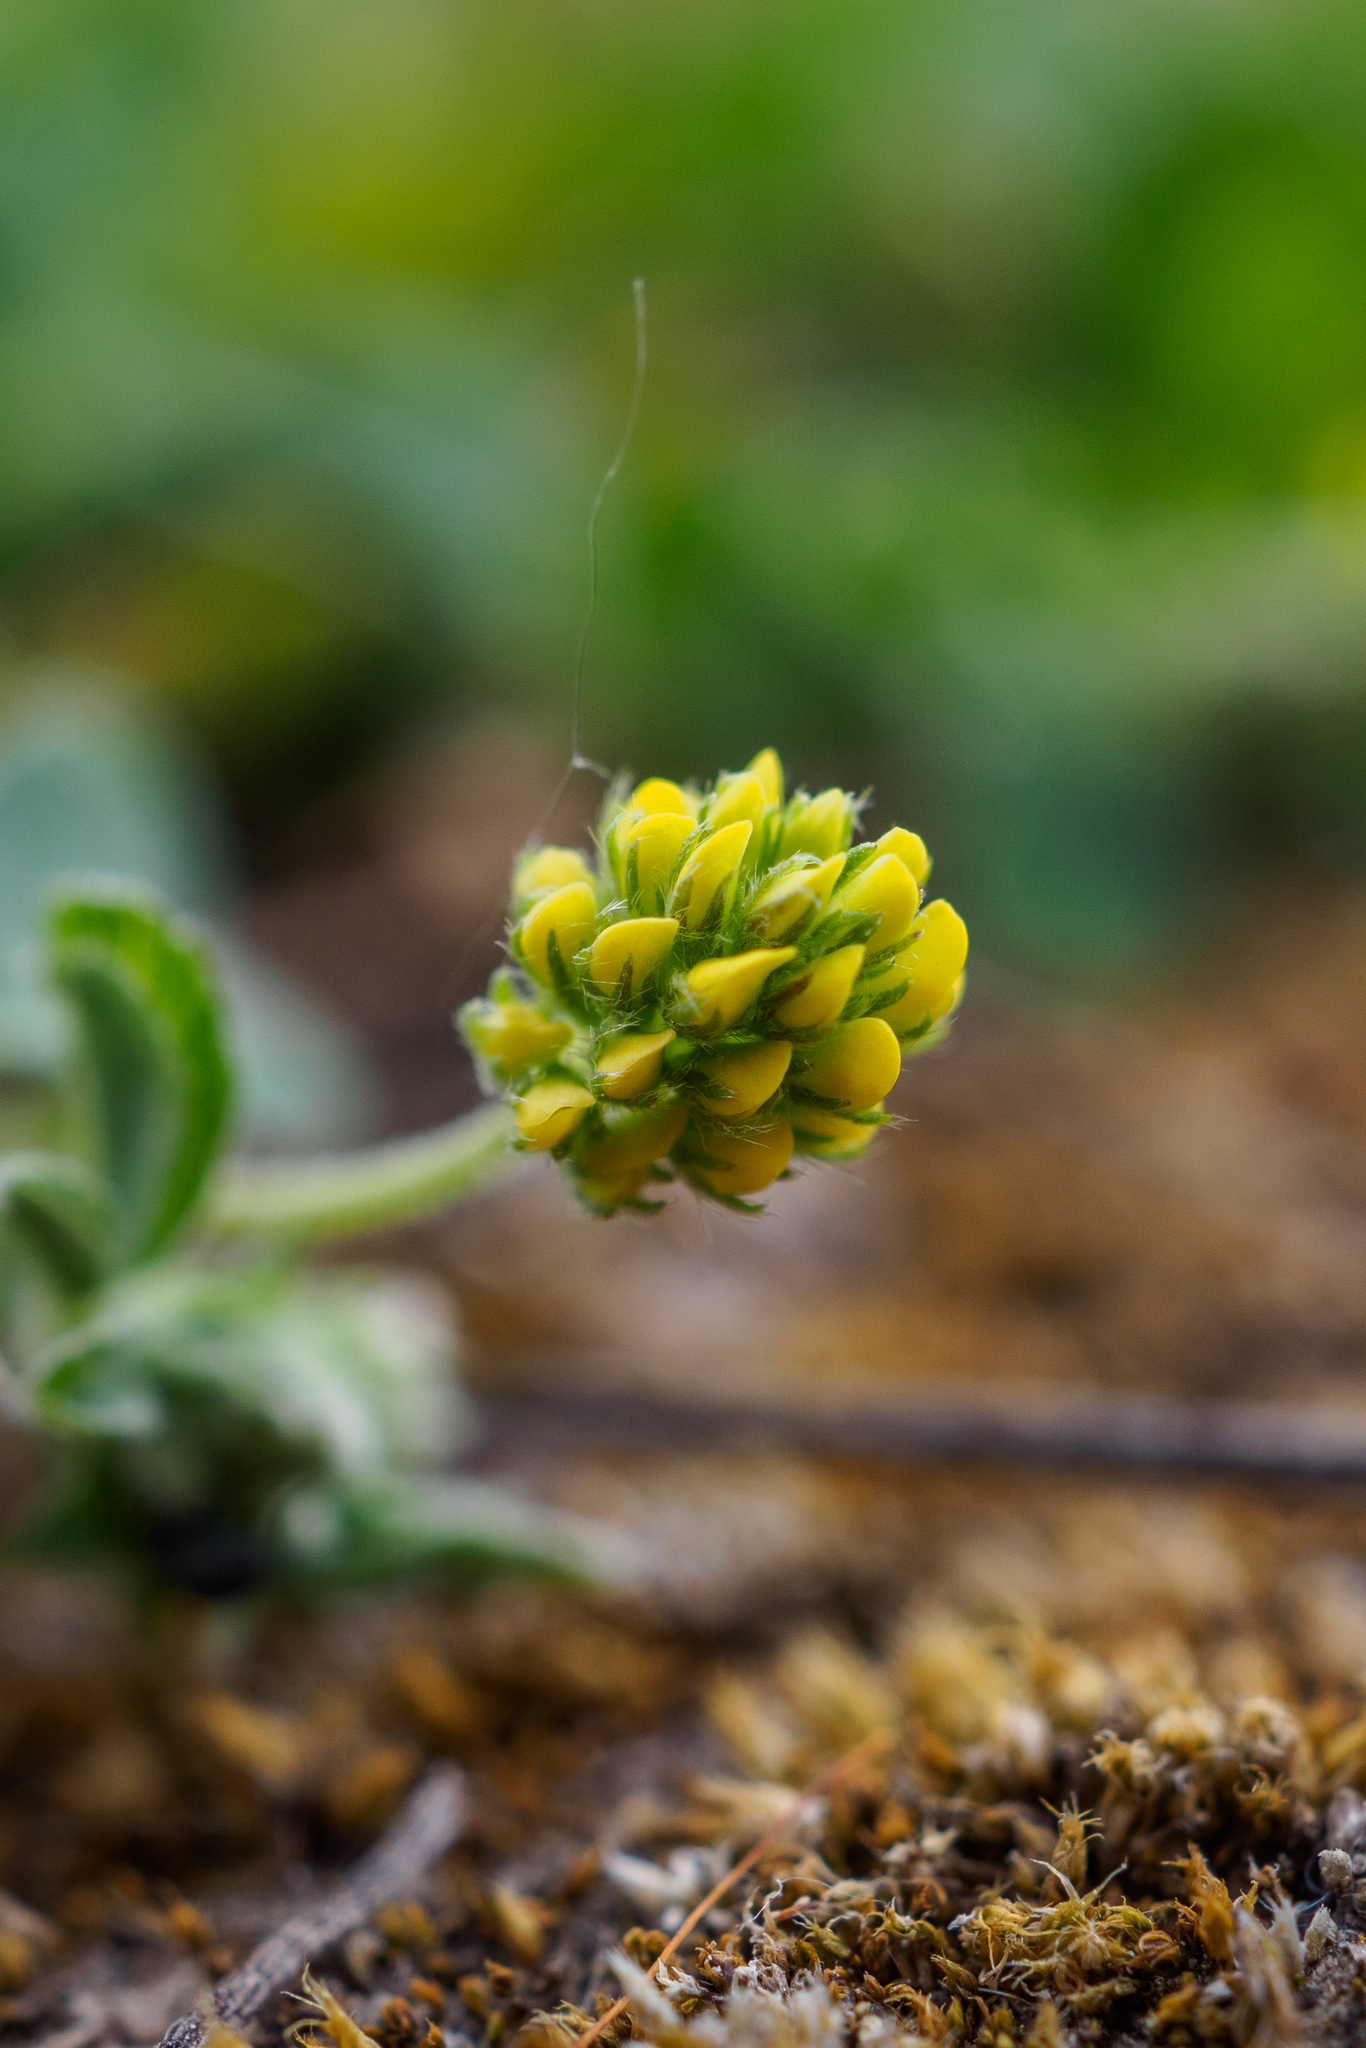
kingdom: Plantae
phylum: Tracheophyta
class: Magnoliopsida
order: Fabales
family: Fabaceae
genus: Medicago
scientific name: Medicago lupulina
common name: Black medick
